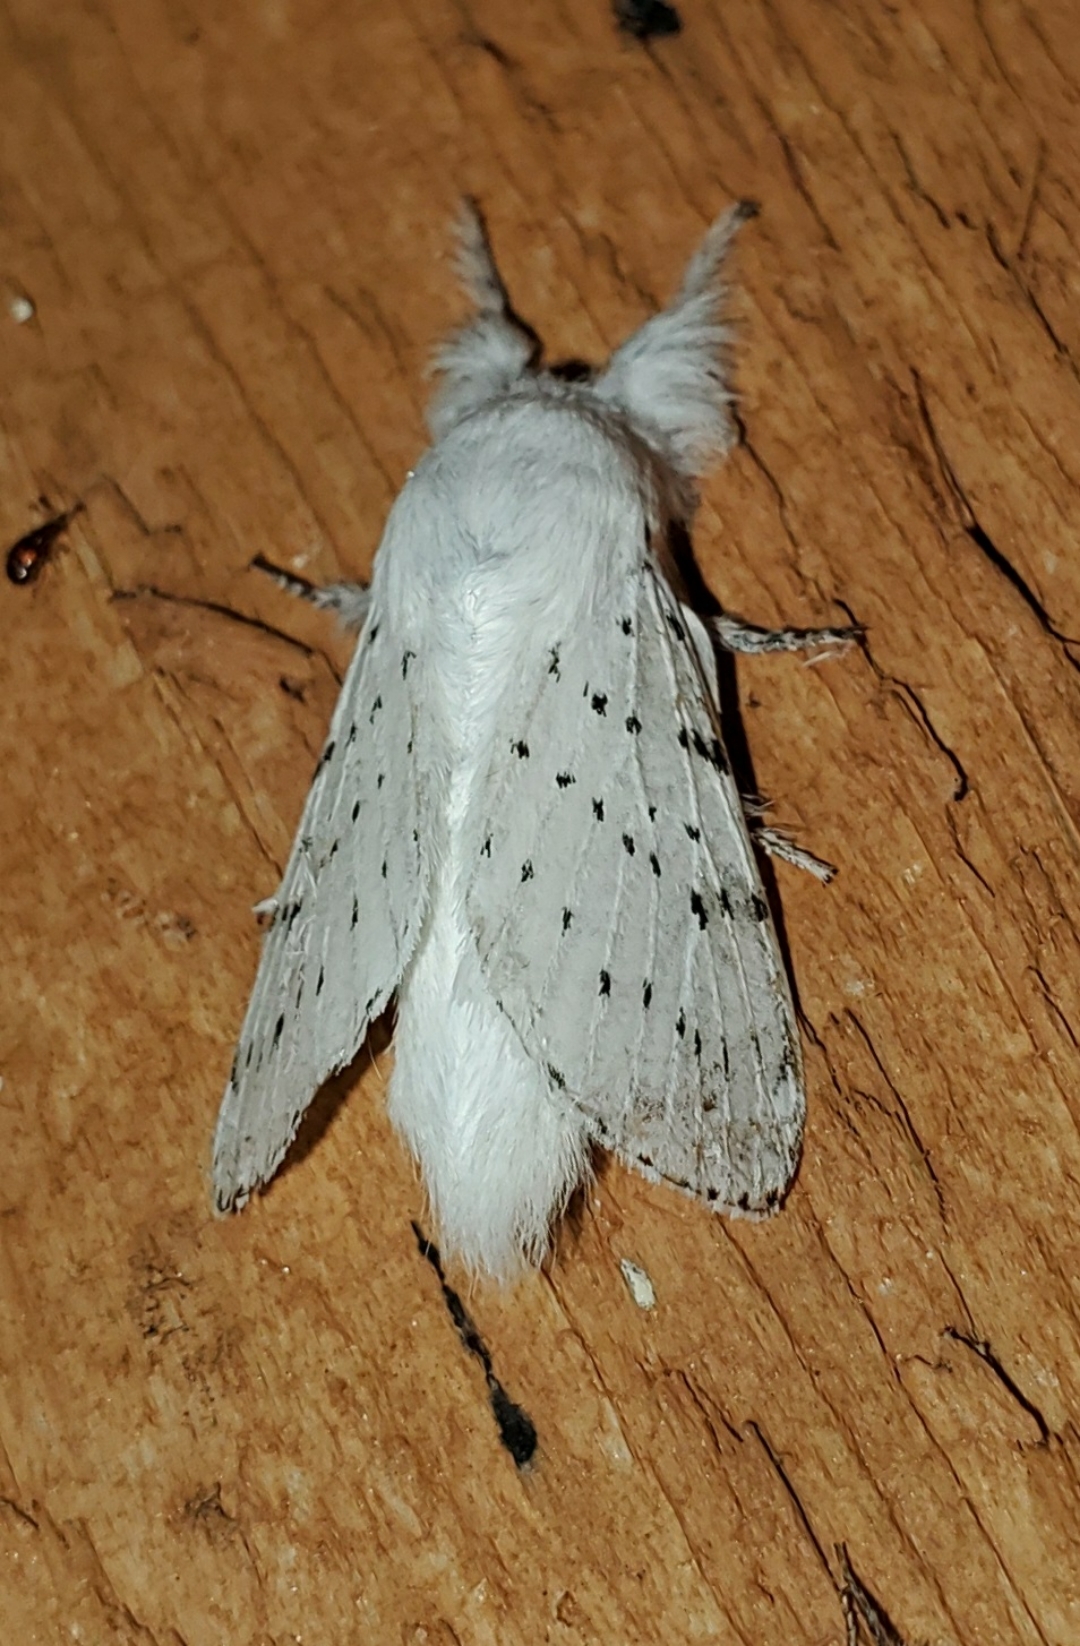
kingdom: Animalia
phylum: Arthropoda
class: Insecta
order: Lepidoptera
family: Lasiocampidae
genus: Artace
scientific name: Artace cribrarius
